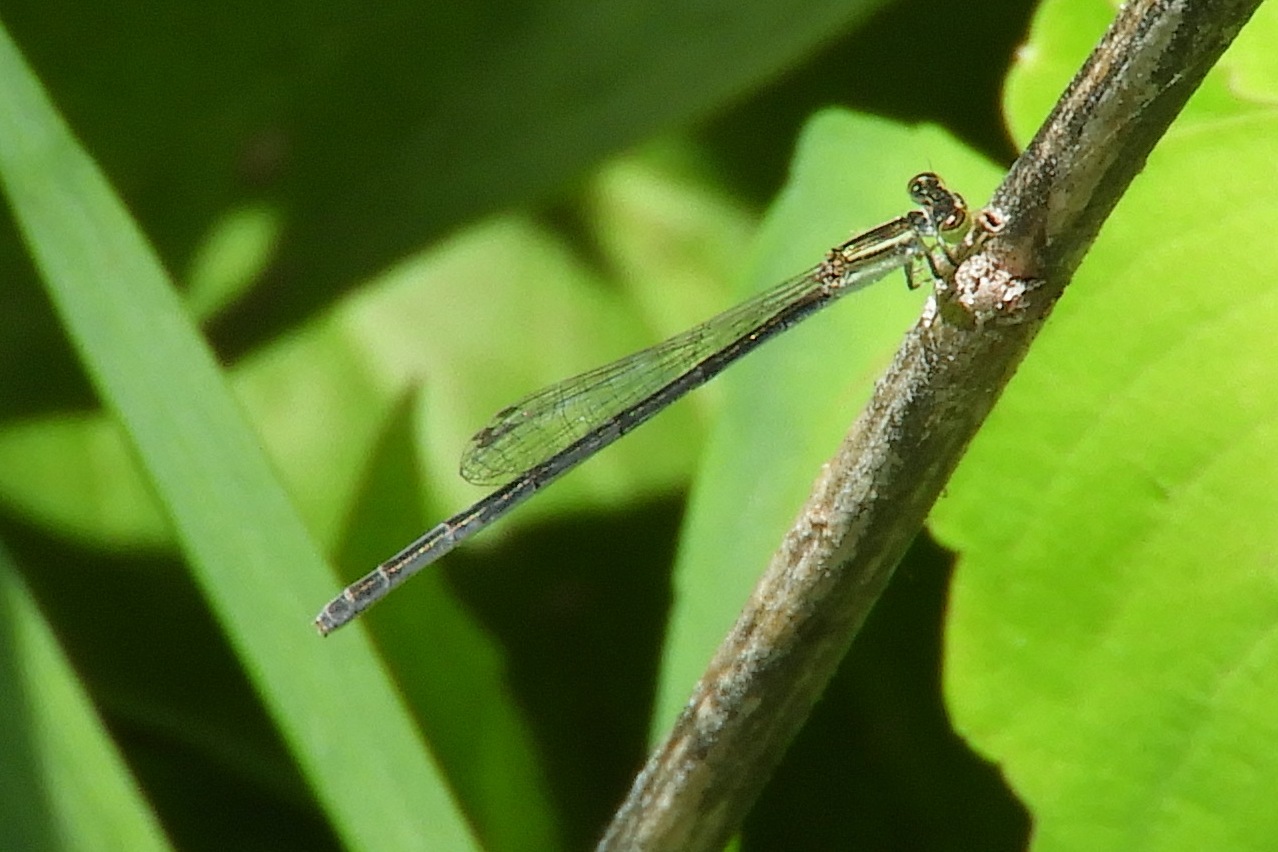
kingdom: Animalia
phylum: Arthropoda
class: Insecta
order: Odonata
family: Coenagrionidae
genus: Ischnura
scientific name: Ischnura hastata
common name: Citrine forktail
